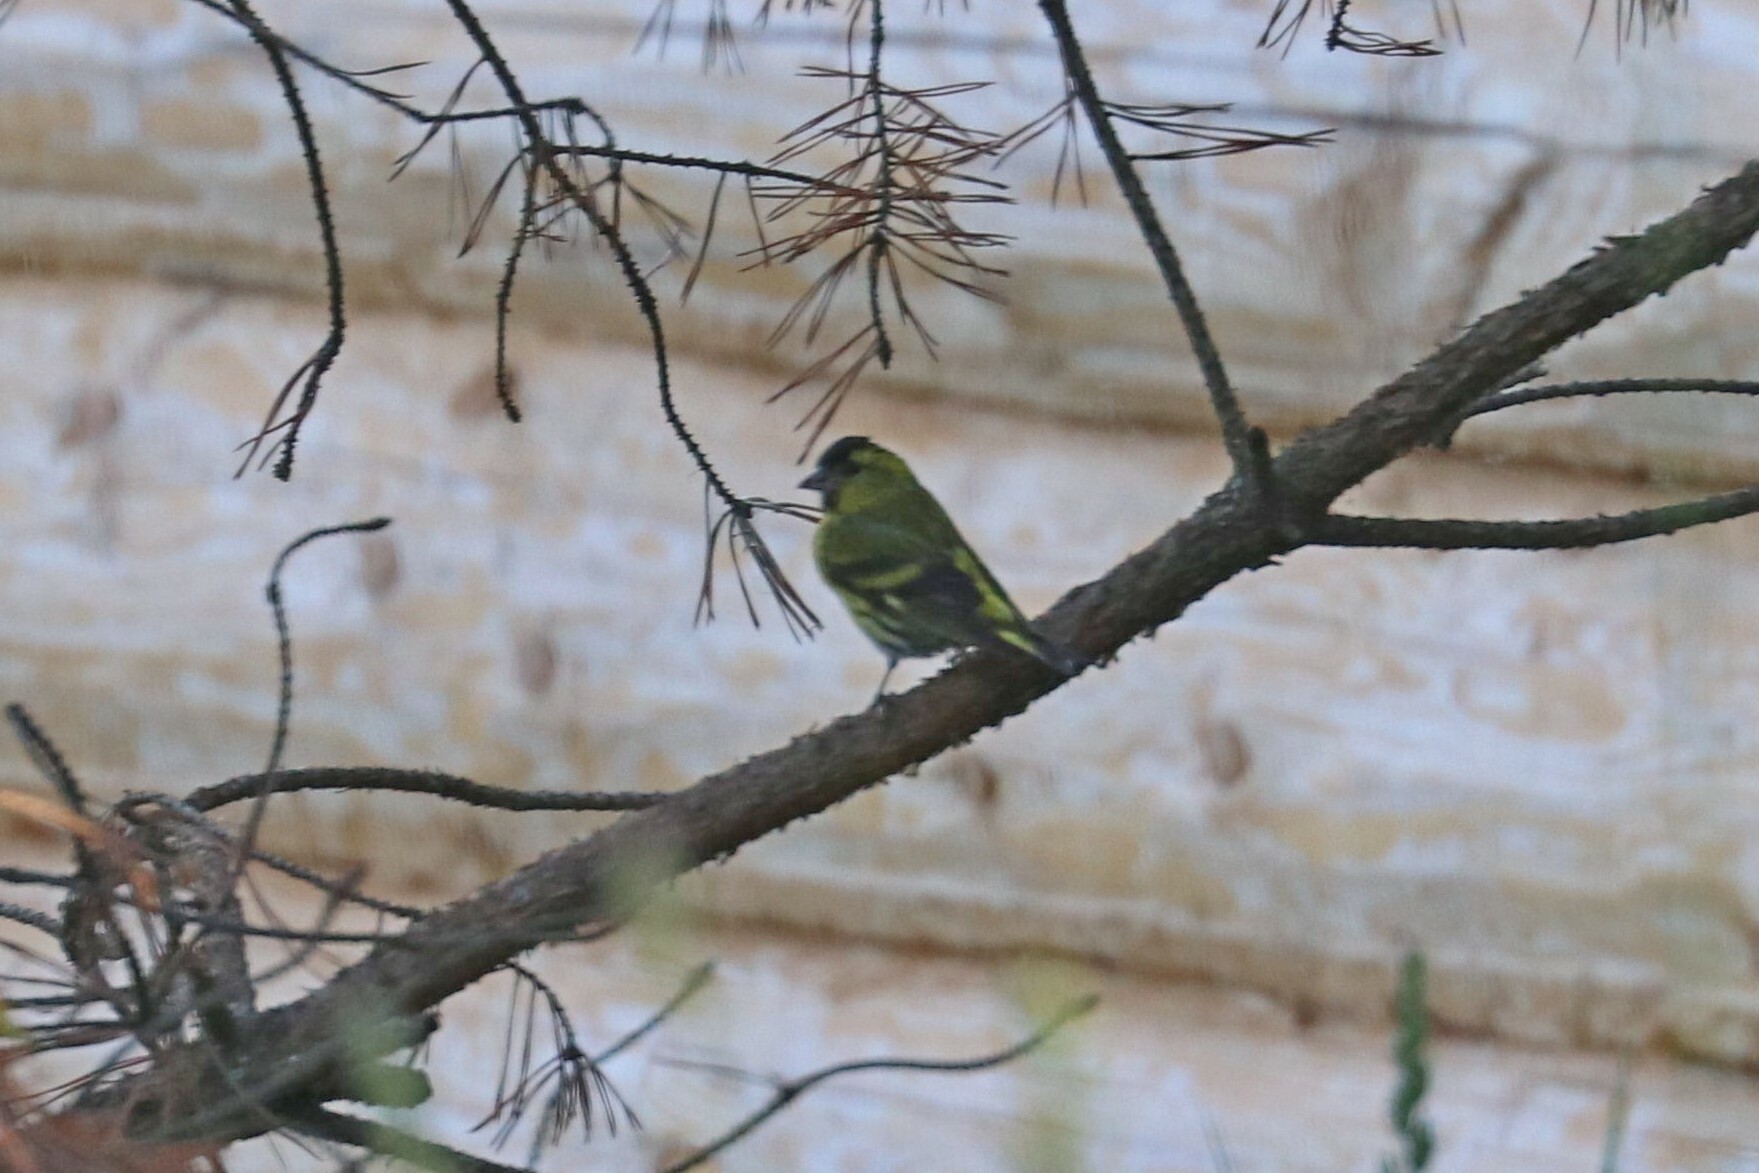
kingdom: Animalia
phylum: Chordata
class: Aves
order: Passeriformes
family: Fringillidae
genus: Spinus
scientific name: Spinus spinus
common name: Eurasian siskin
